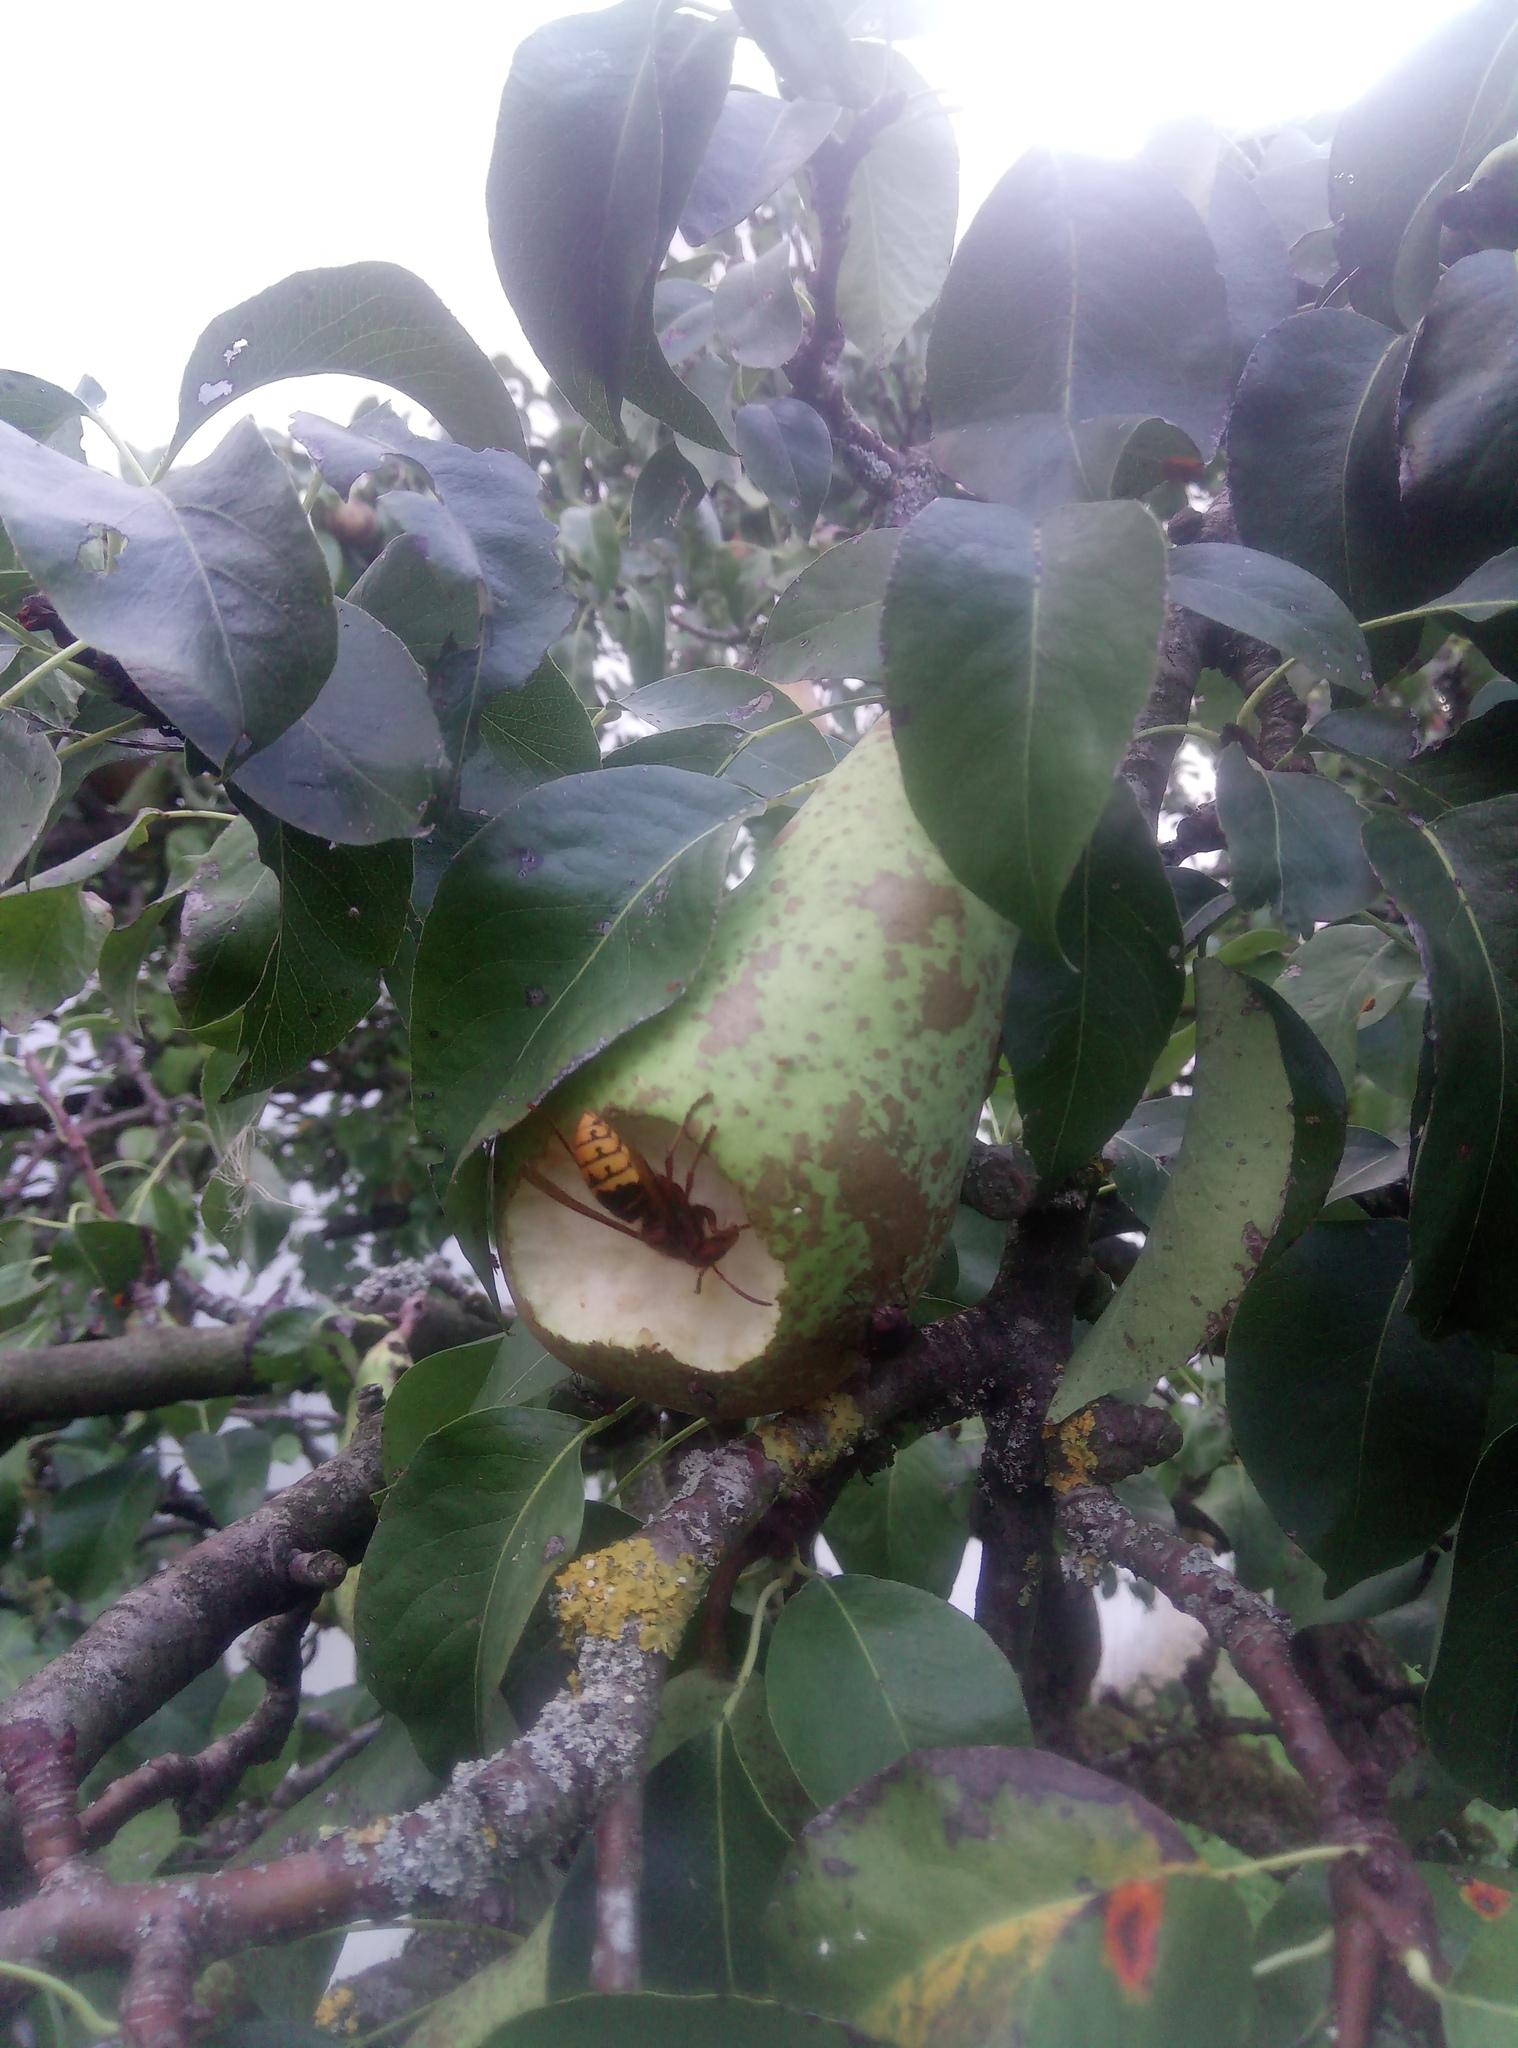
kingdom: Animalia
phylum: Arthropoda
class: Insecta
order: Hymenoptera
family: Vespidae
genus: Vespa
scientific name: Vespa crabro
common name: Hornet
